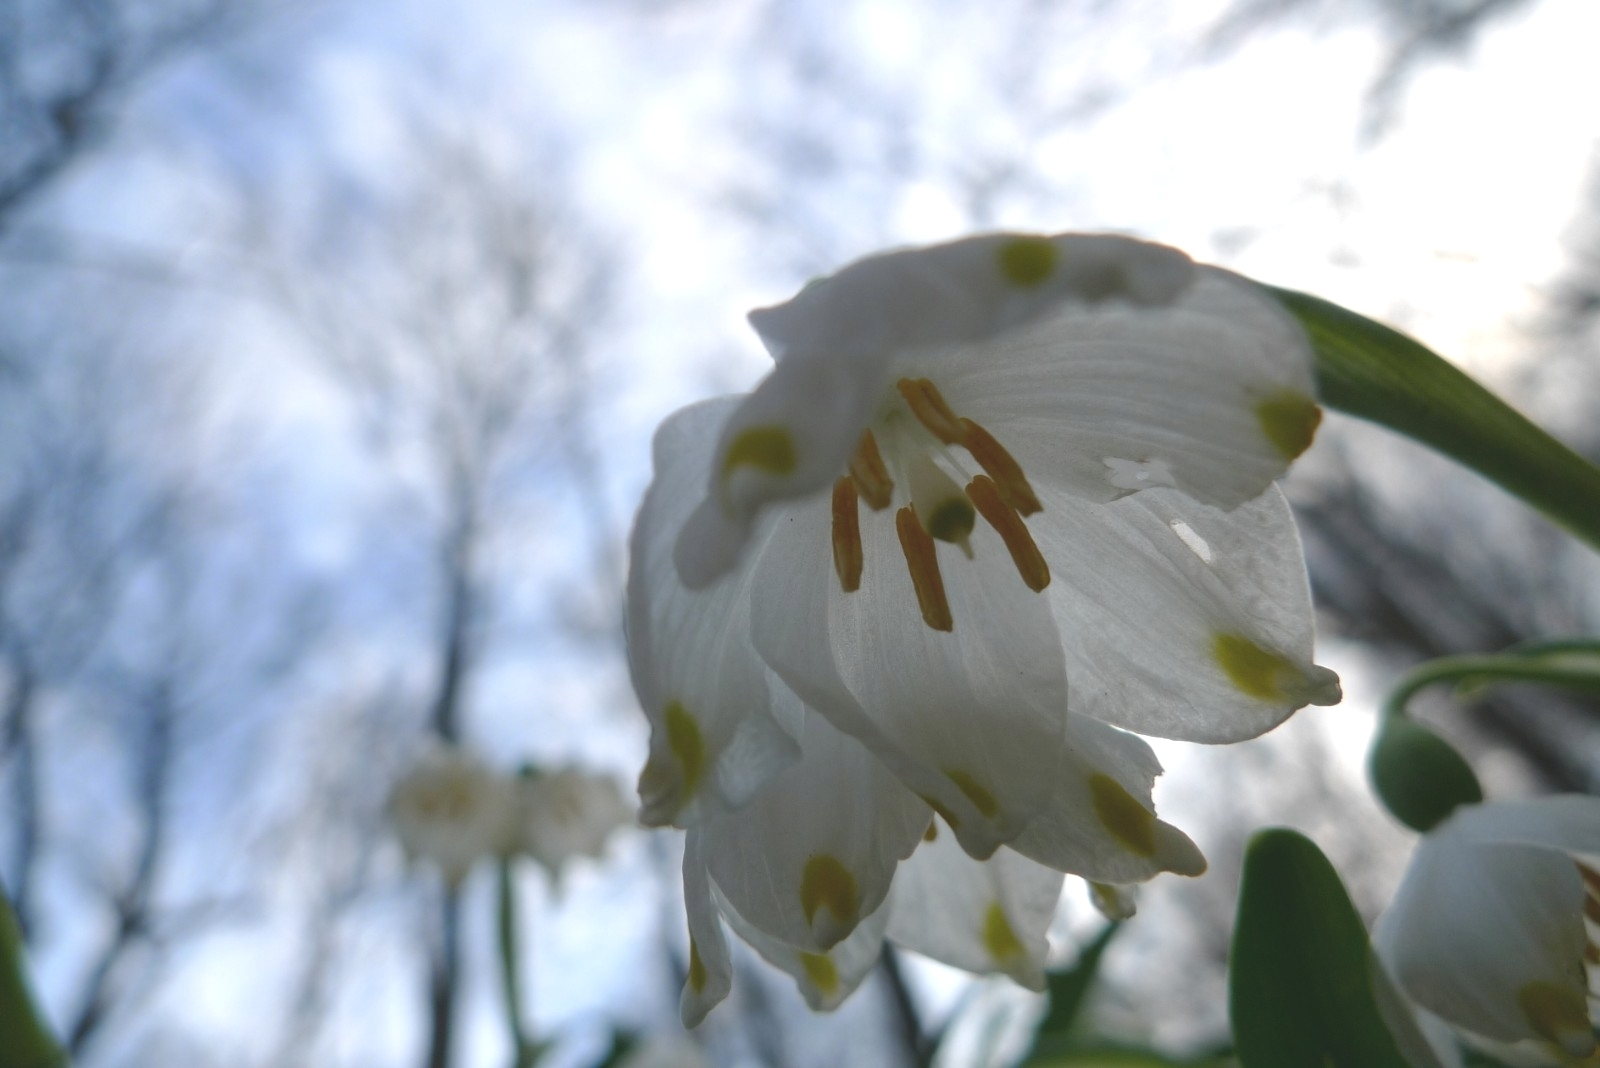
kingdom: Plantae
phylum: Tracheophyta
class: Liliopsida
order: Asparagales
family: Amaryllidaceae
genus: Leucojum
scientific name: Leucojum vernum
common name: Spring snowflake
